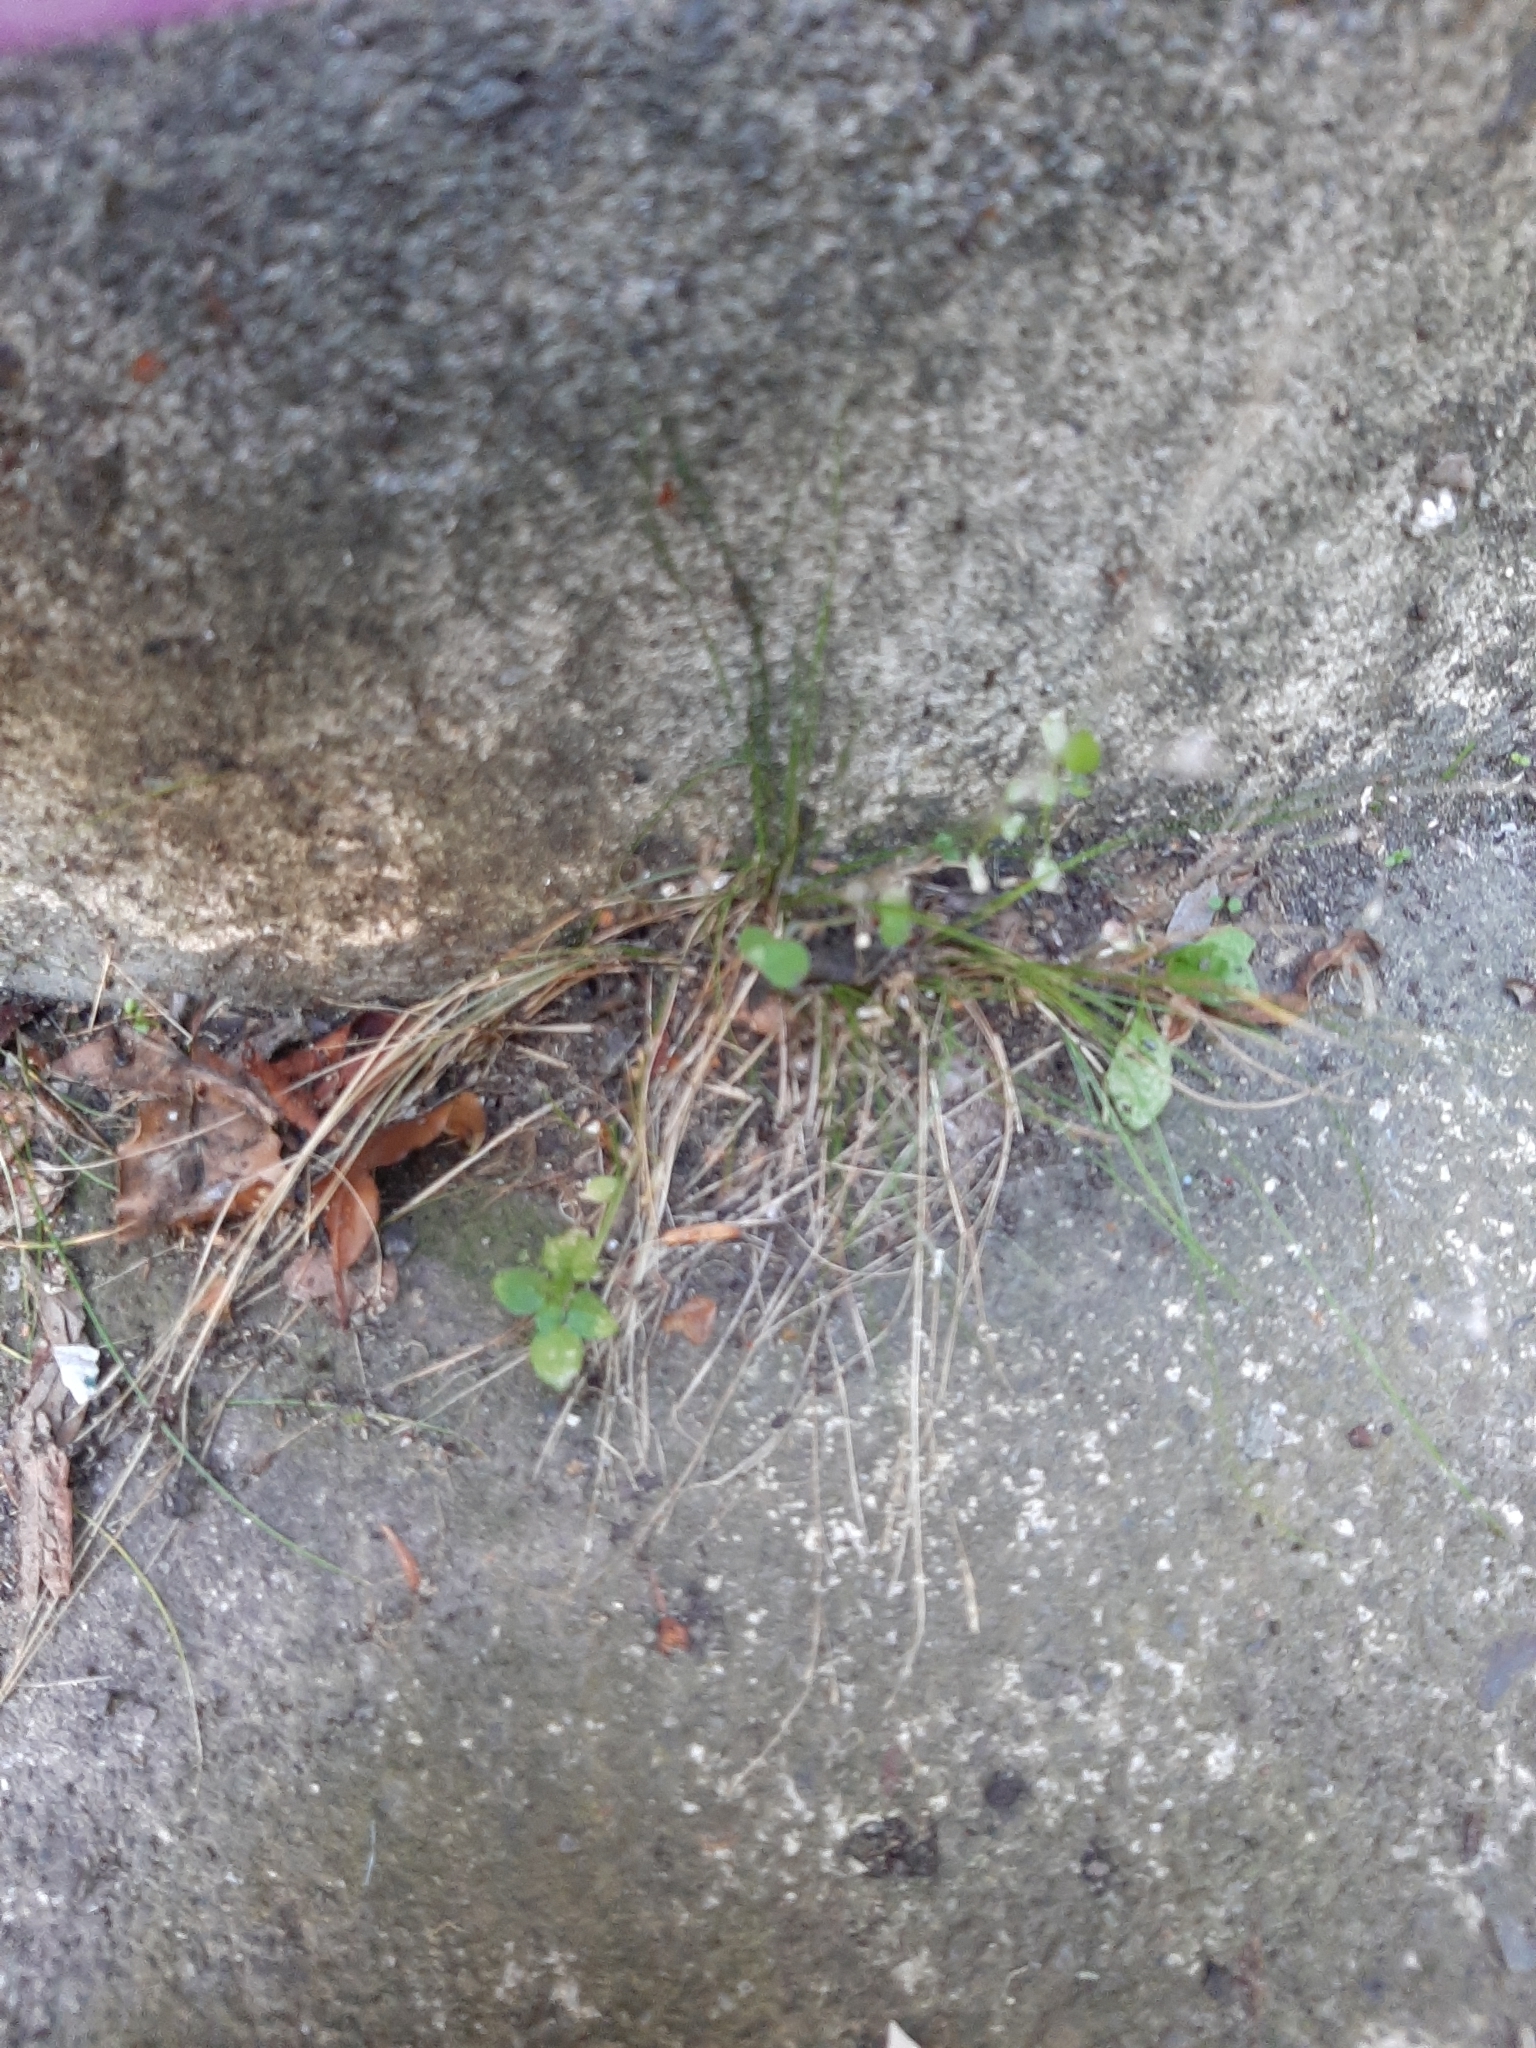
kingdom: Plantae
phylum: Tracheophyta
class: Liliopsida
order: Poales
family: Poaceae
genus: Poa
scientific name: Poa imbecilla
